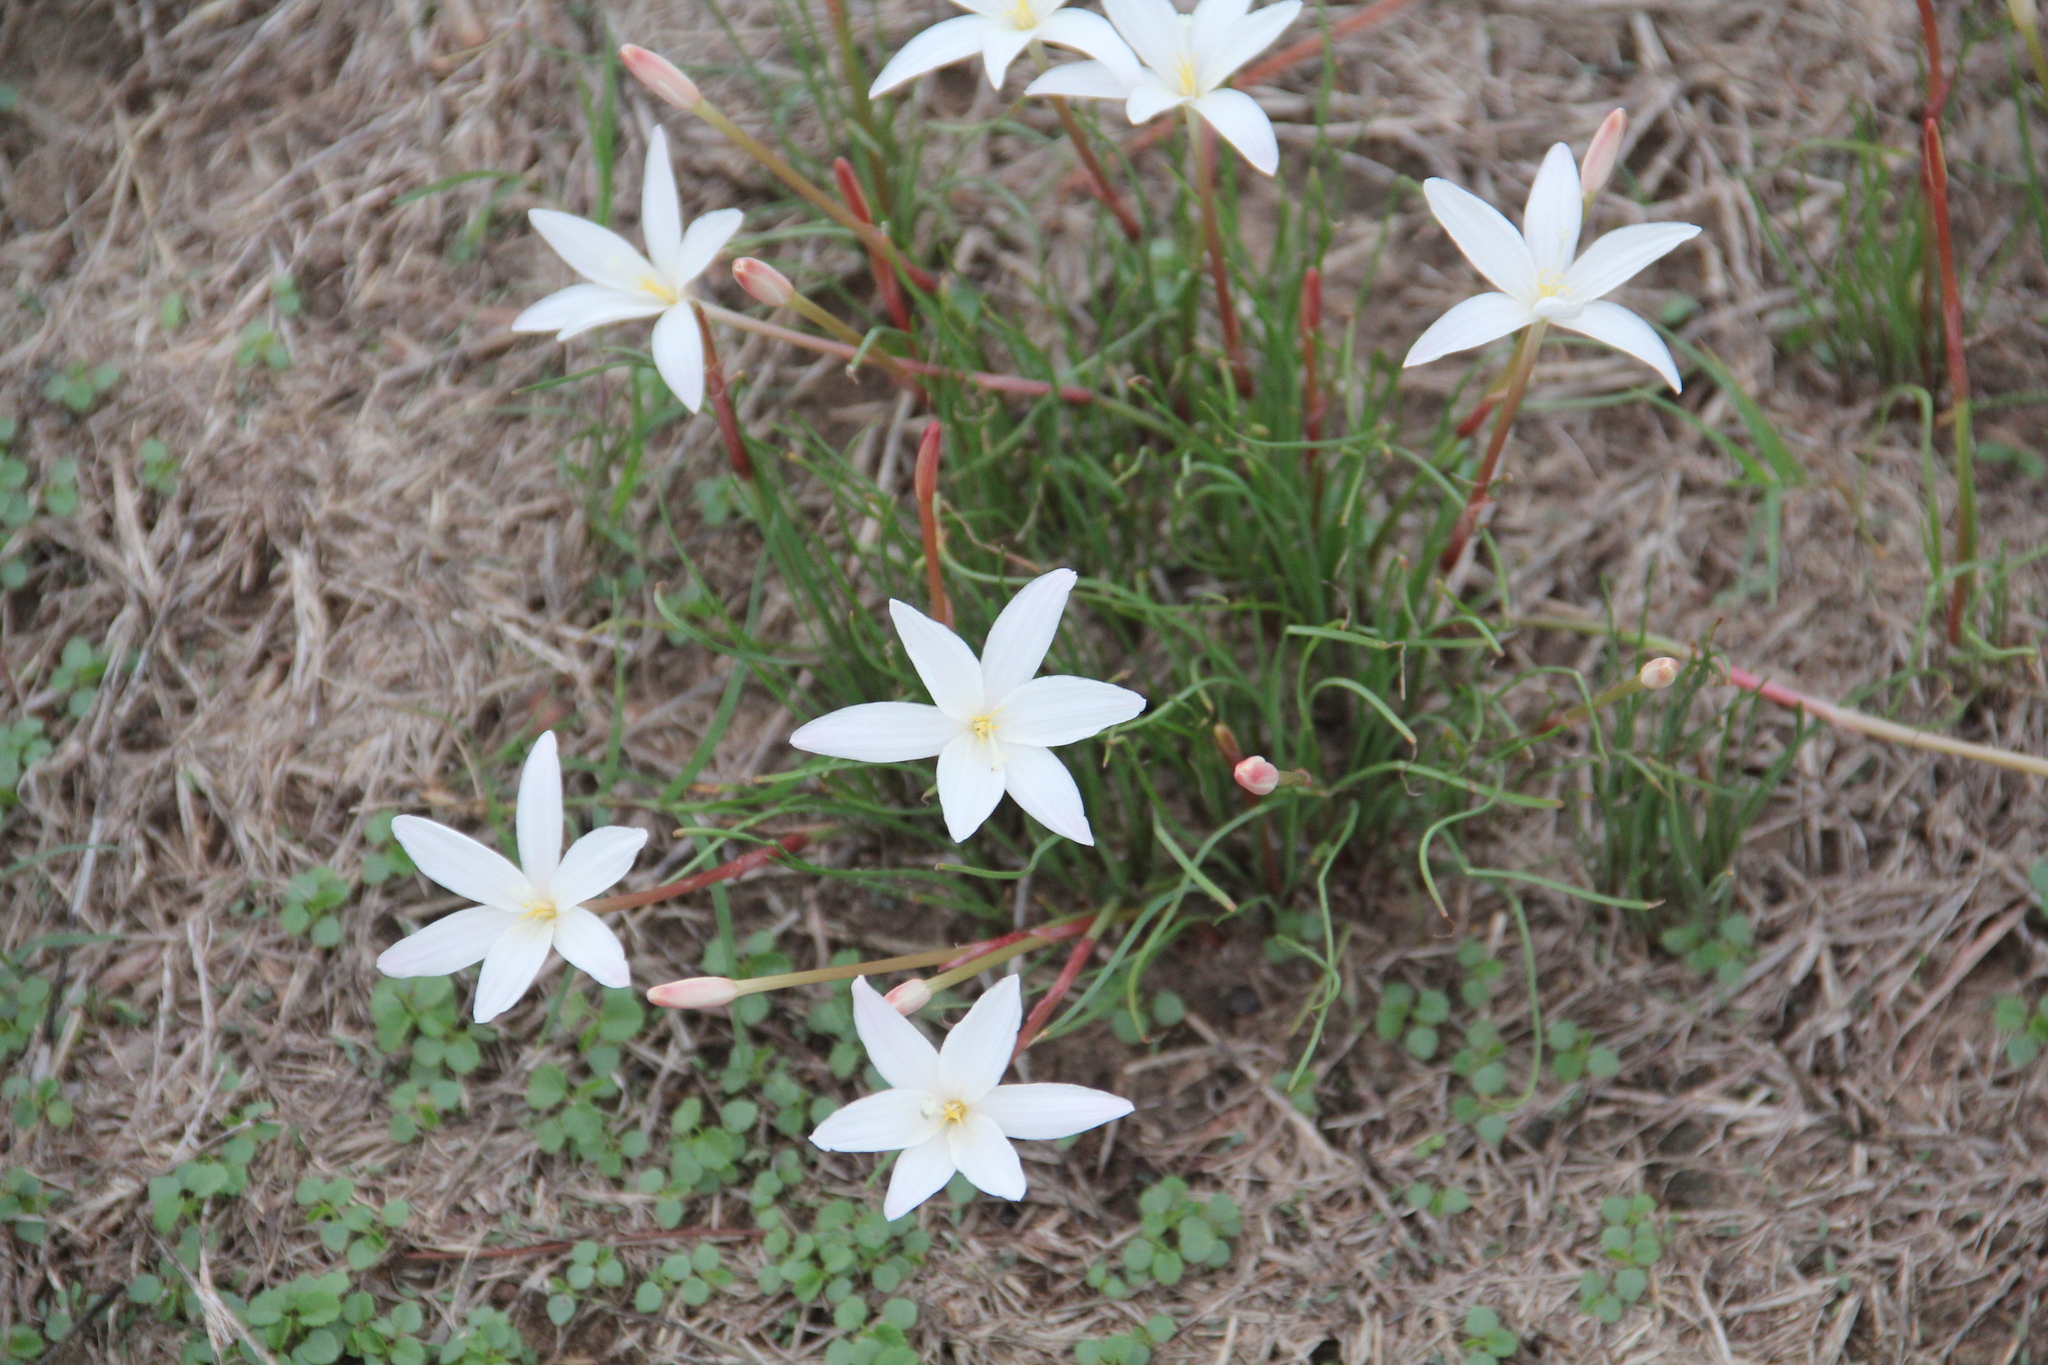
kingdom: Plantae
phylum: Tracheophyta
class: Liliopsida
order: Asparagales
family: Amaryllidaceae
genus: Zephyranthes
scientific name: Zephyranthes traubii
